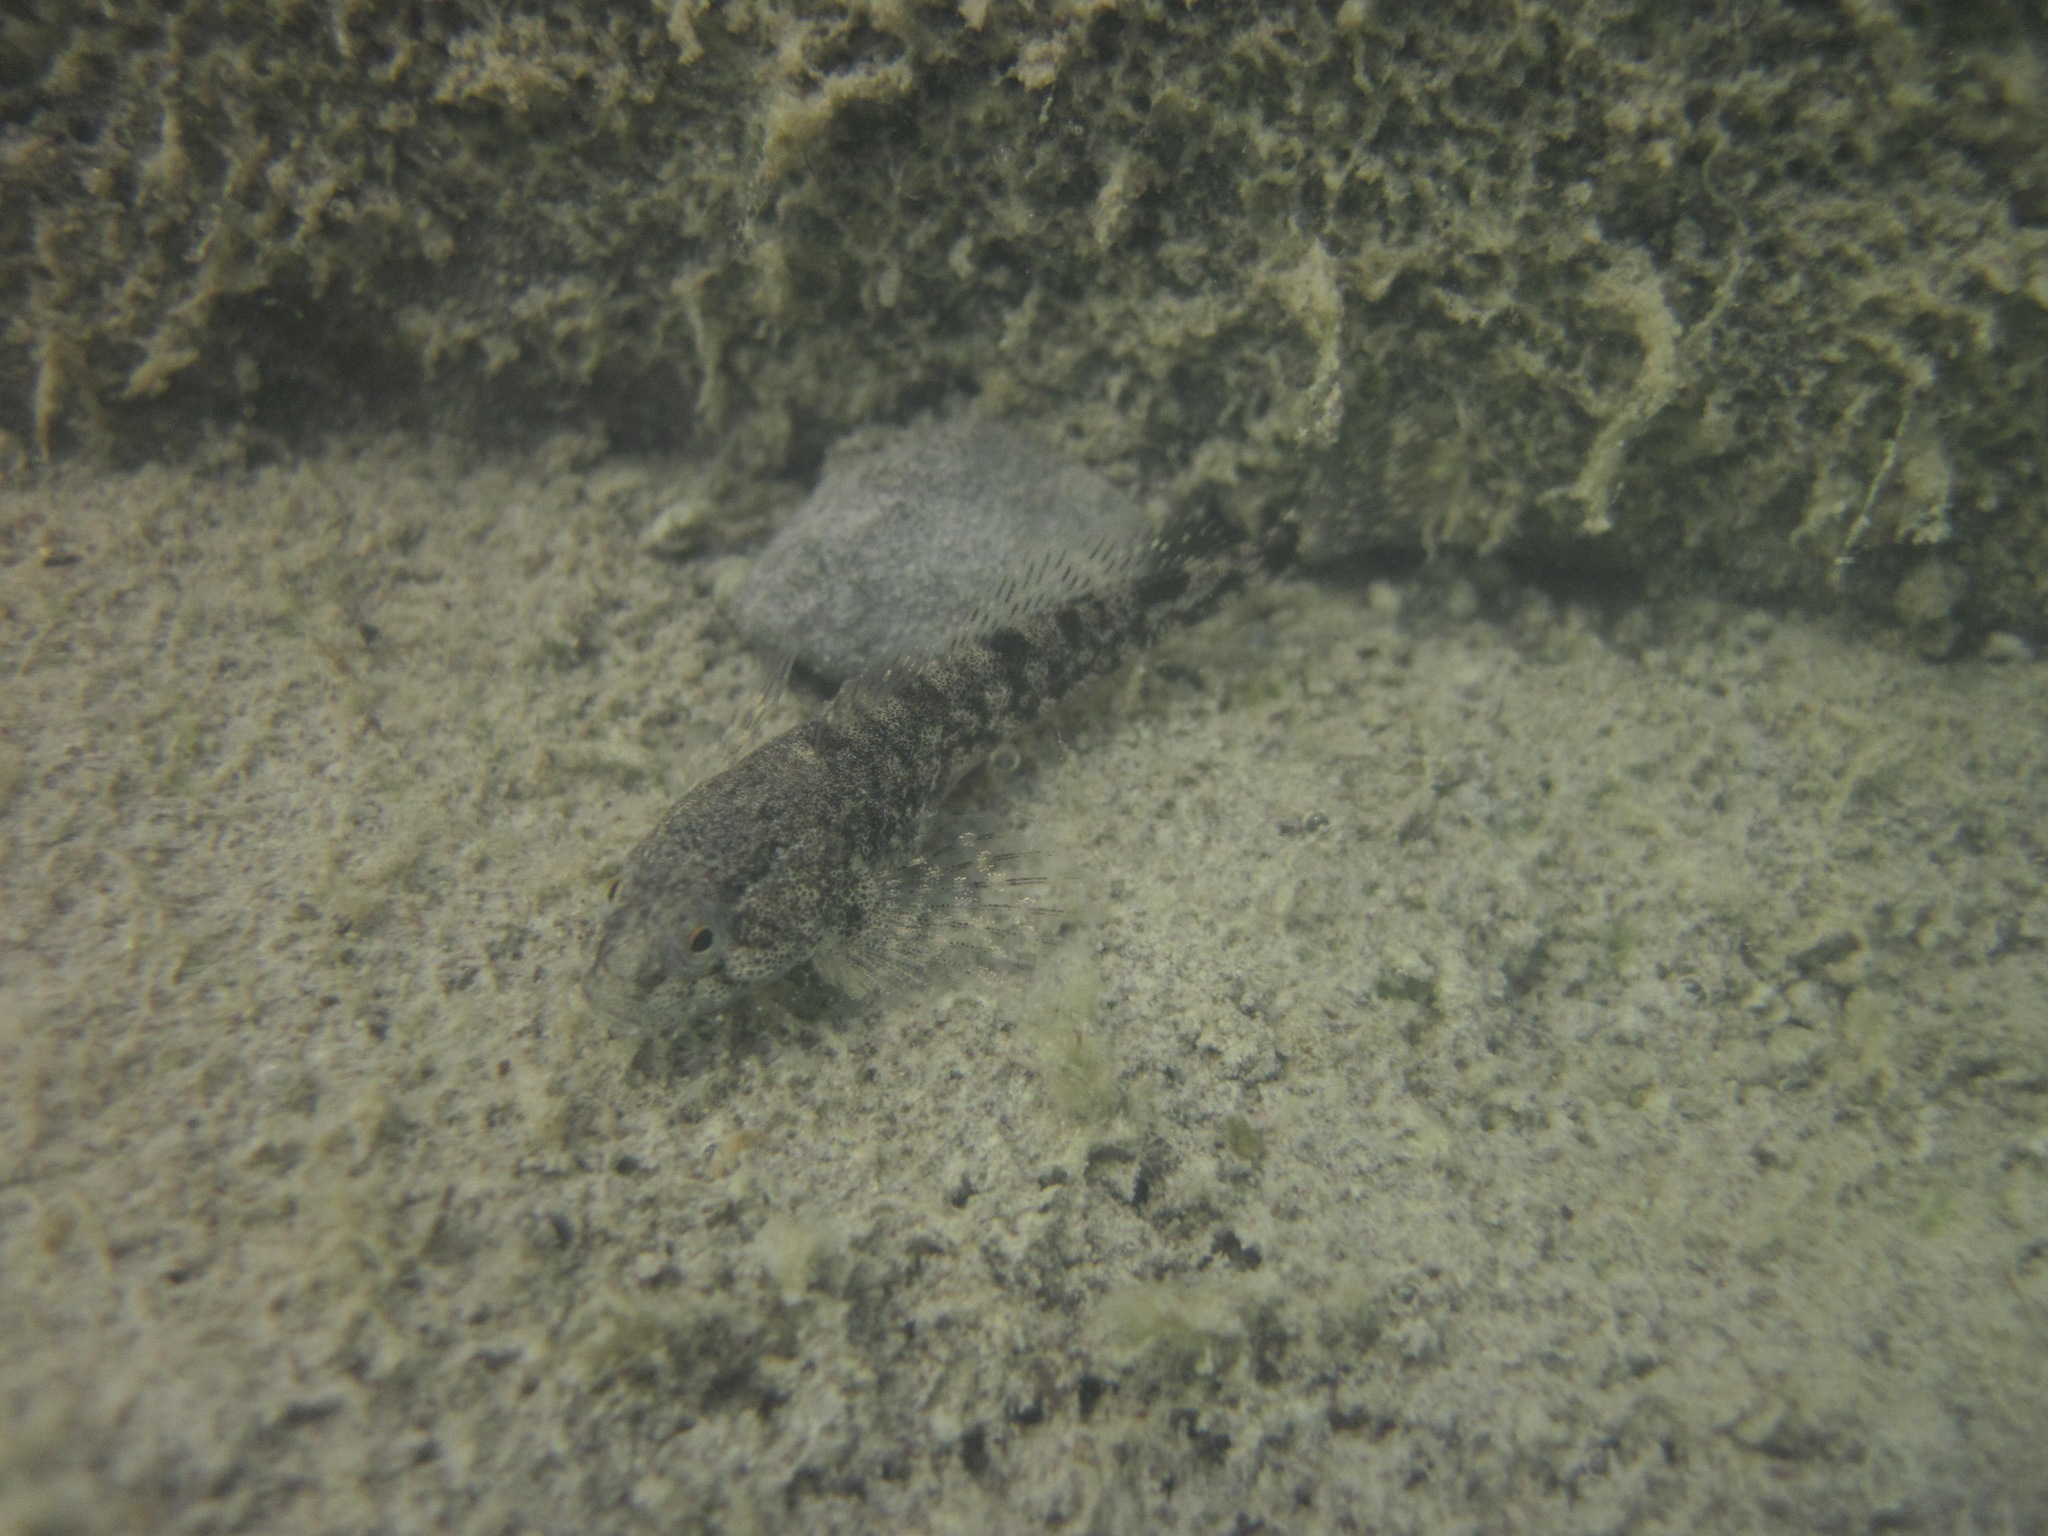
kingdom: Animalia
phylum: Chordata
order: Scorpaeniformes
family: Cottidae
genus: Cottus
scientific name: Cottus sibiricus
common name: Siberian miller's thumb
